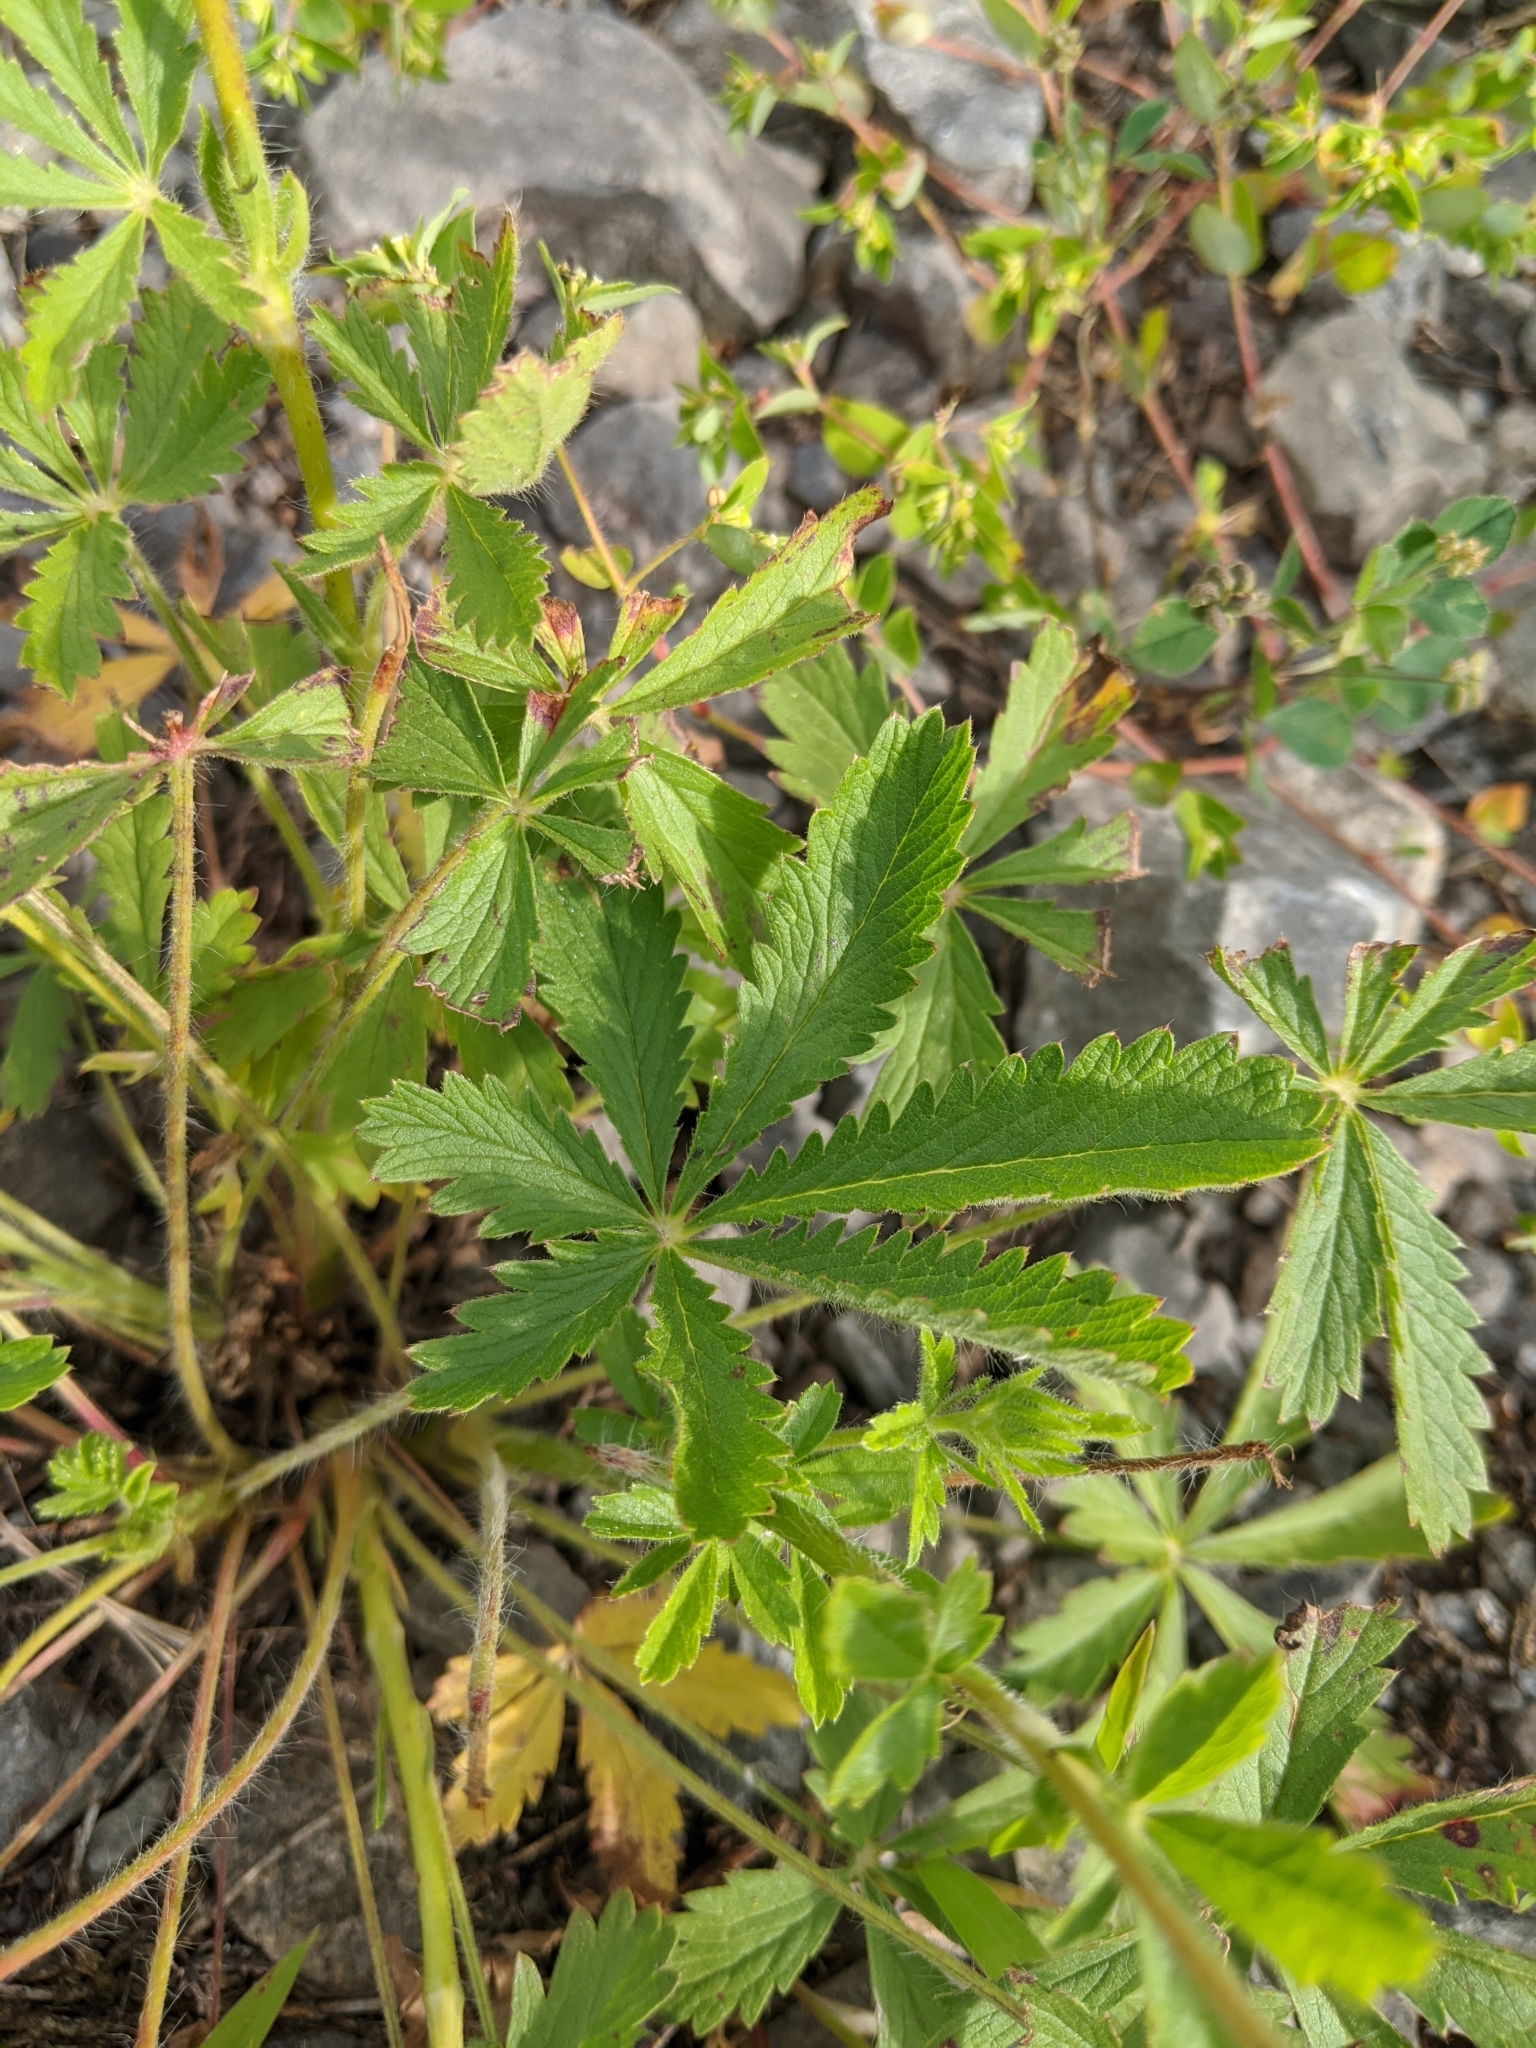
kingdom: Plantae
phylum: Tracheophyta
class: Magnoliopsida
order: Rosales
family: Rosaceae
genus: Potentilla
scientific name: Potentilla recta
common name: Sulphur cinquefoil
